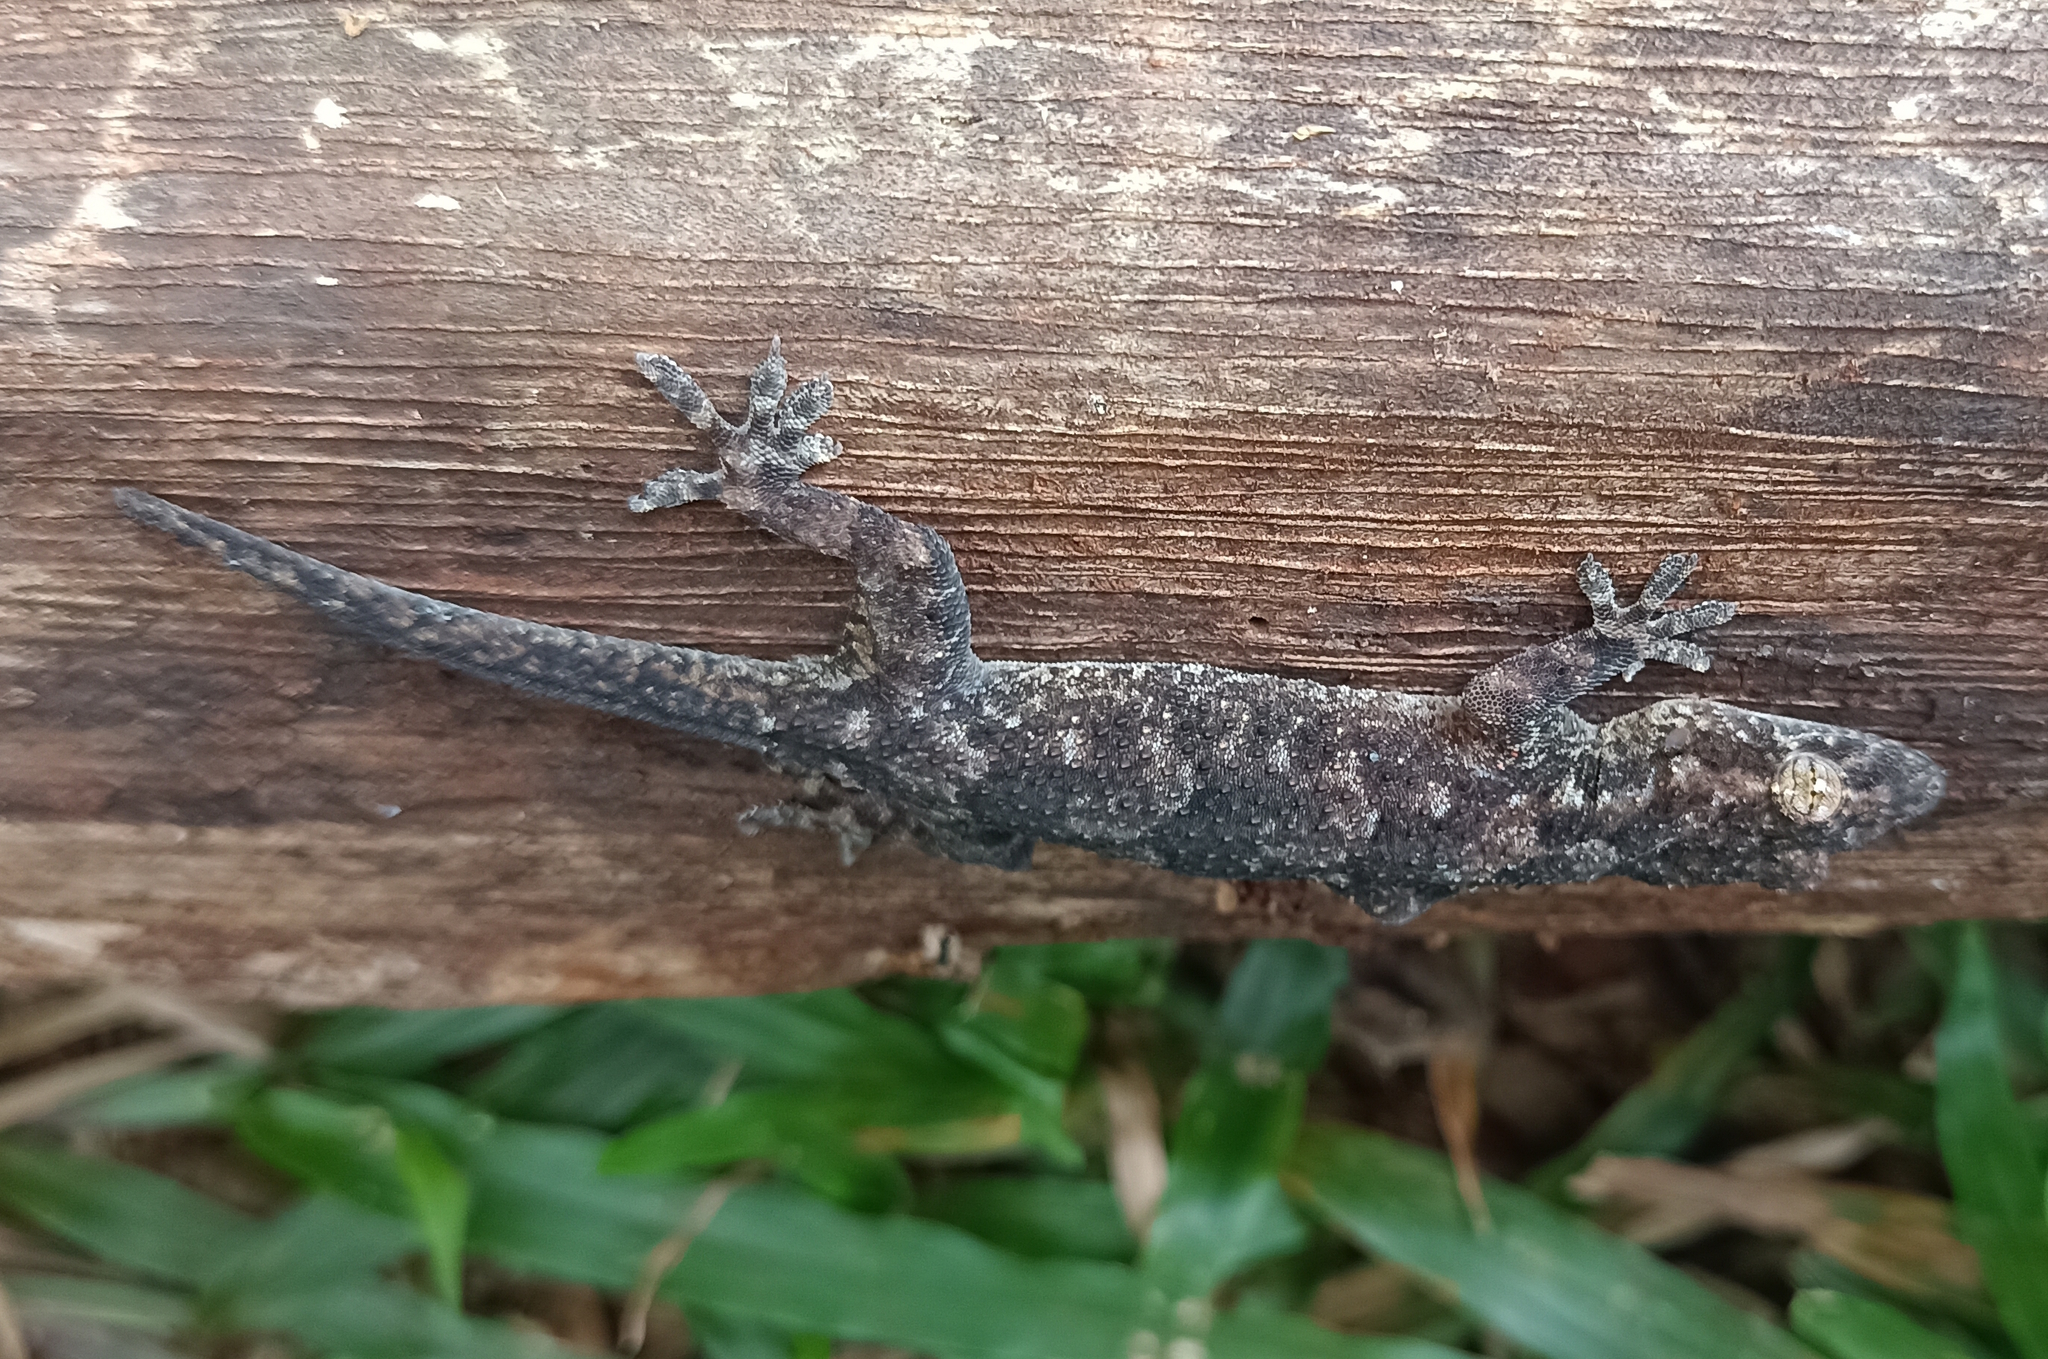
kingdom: Animalia
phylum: Chordata
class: Squamata
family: Gekkonidae
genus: Hemidactylus
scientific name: Hemidactylus mabouia
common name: House gecko
